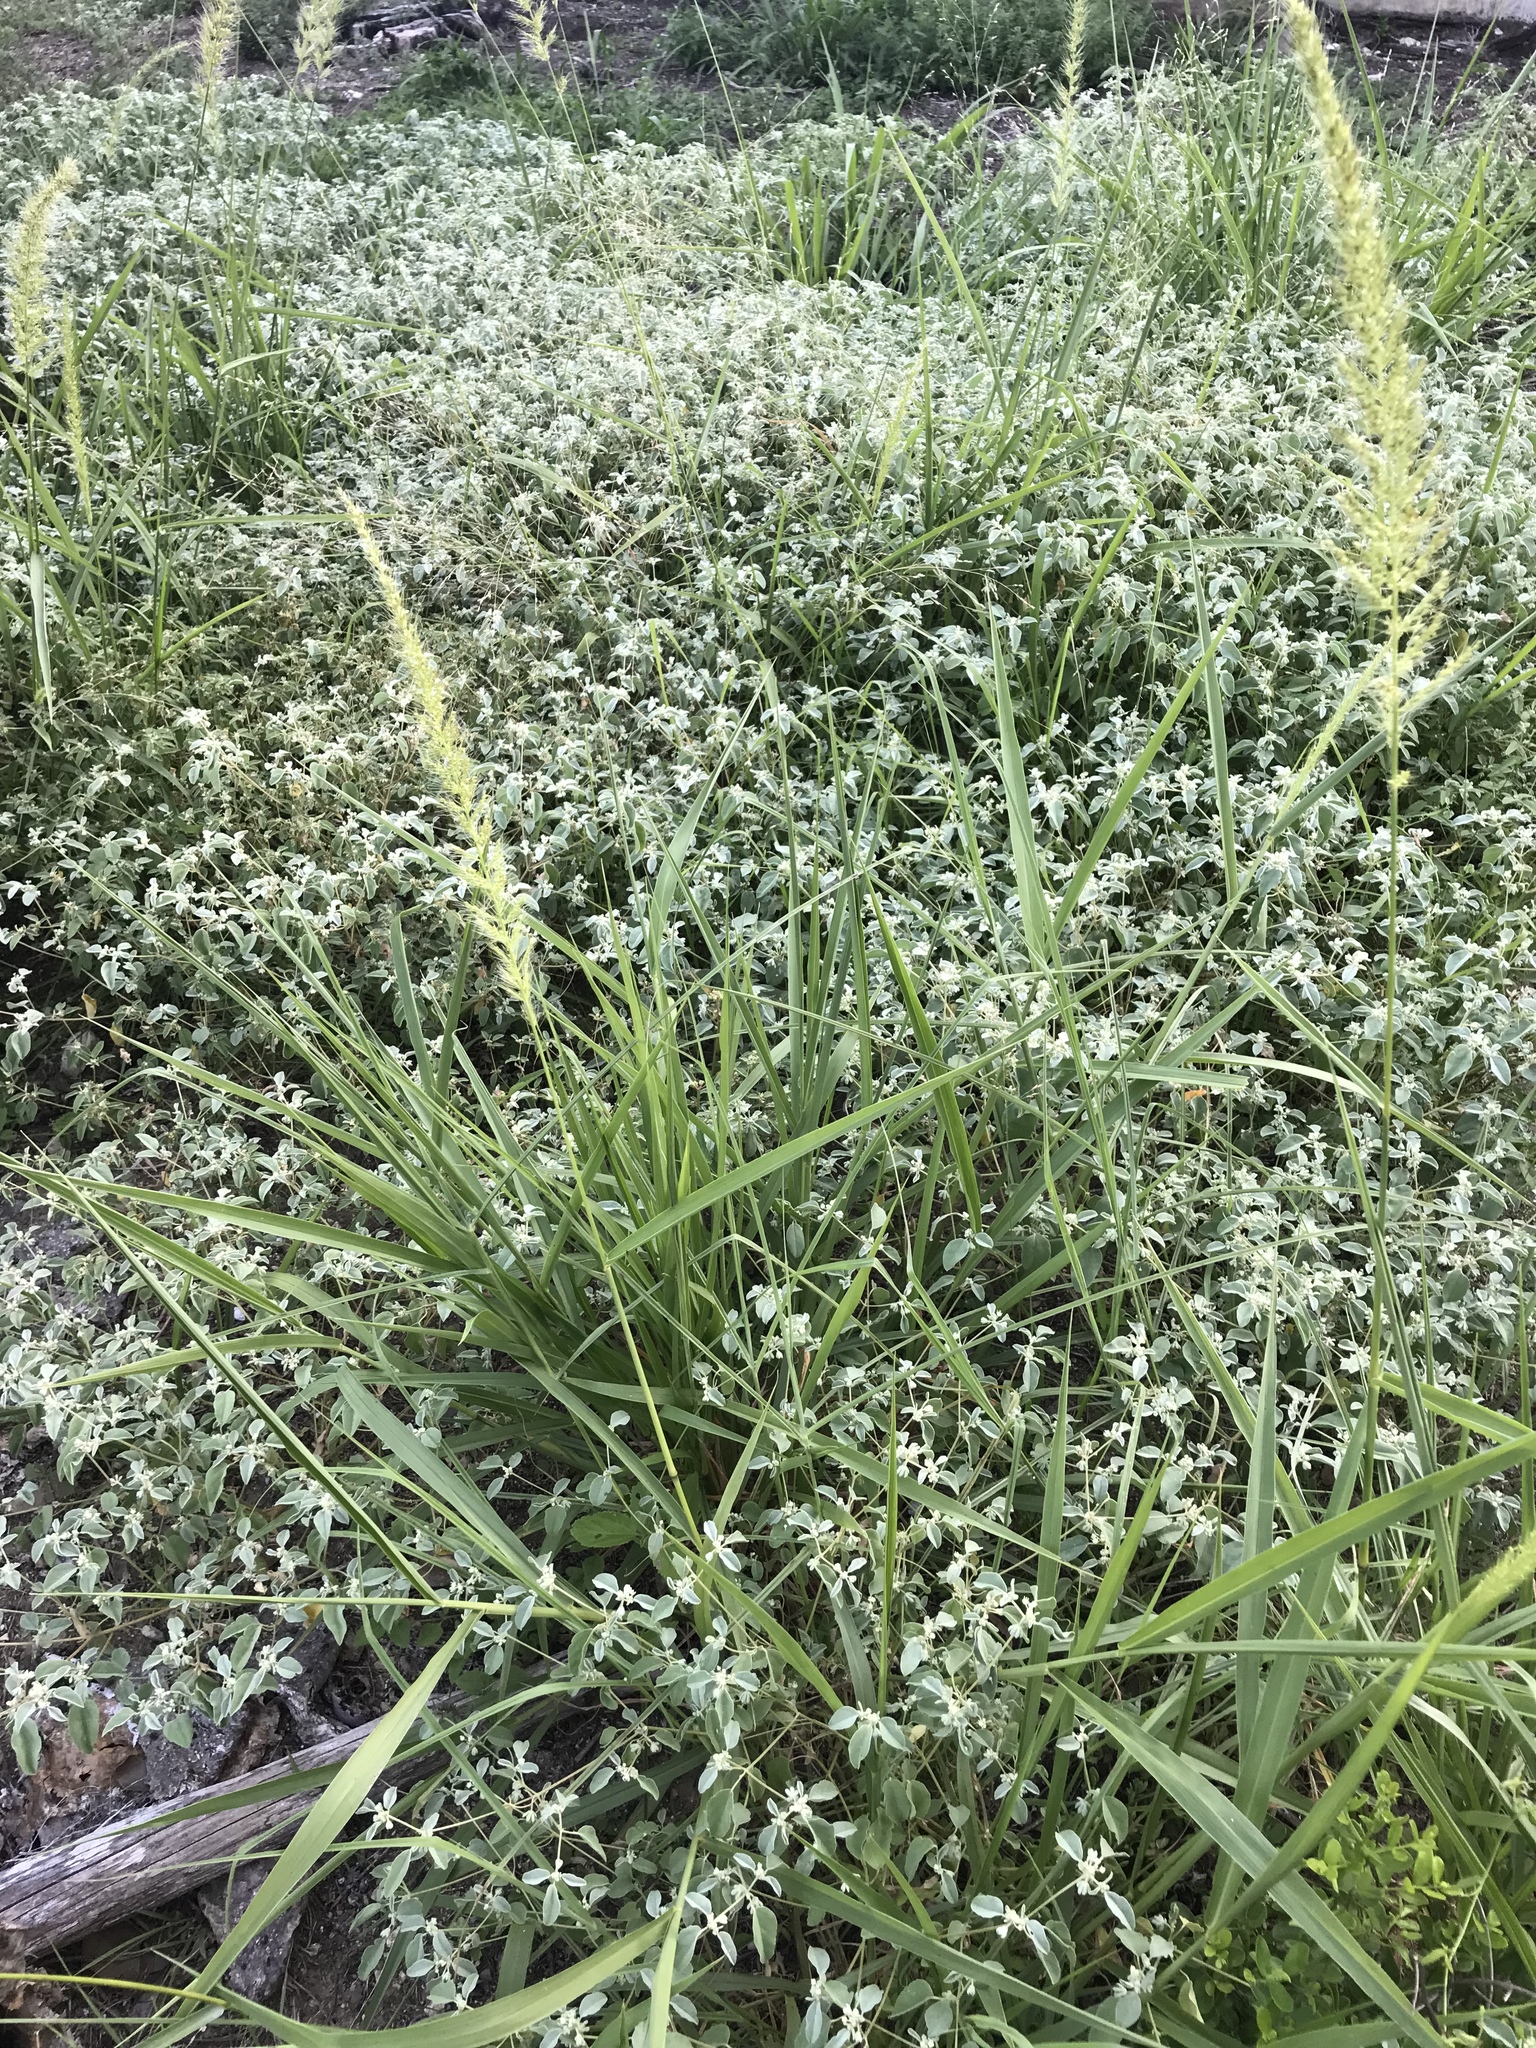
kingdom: Plantae
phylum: Tracheophyta
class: Liliopsida
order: Poales
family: Poaceae
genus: Setaria
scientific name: Setaria scheelei
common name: Southwestern bristle grass
